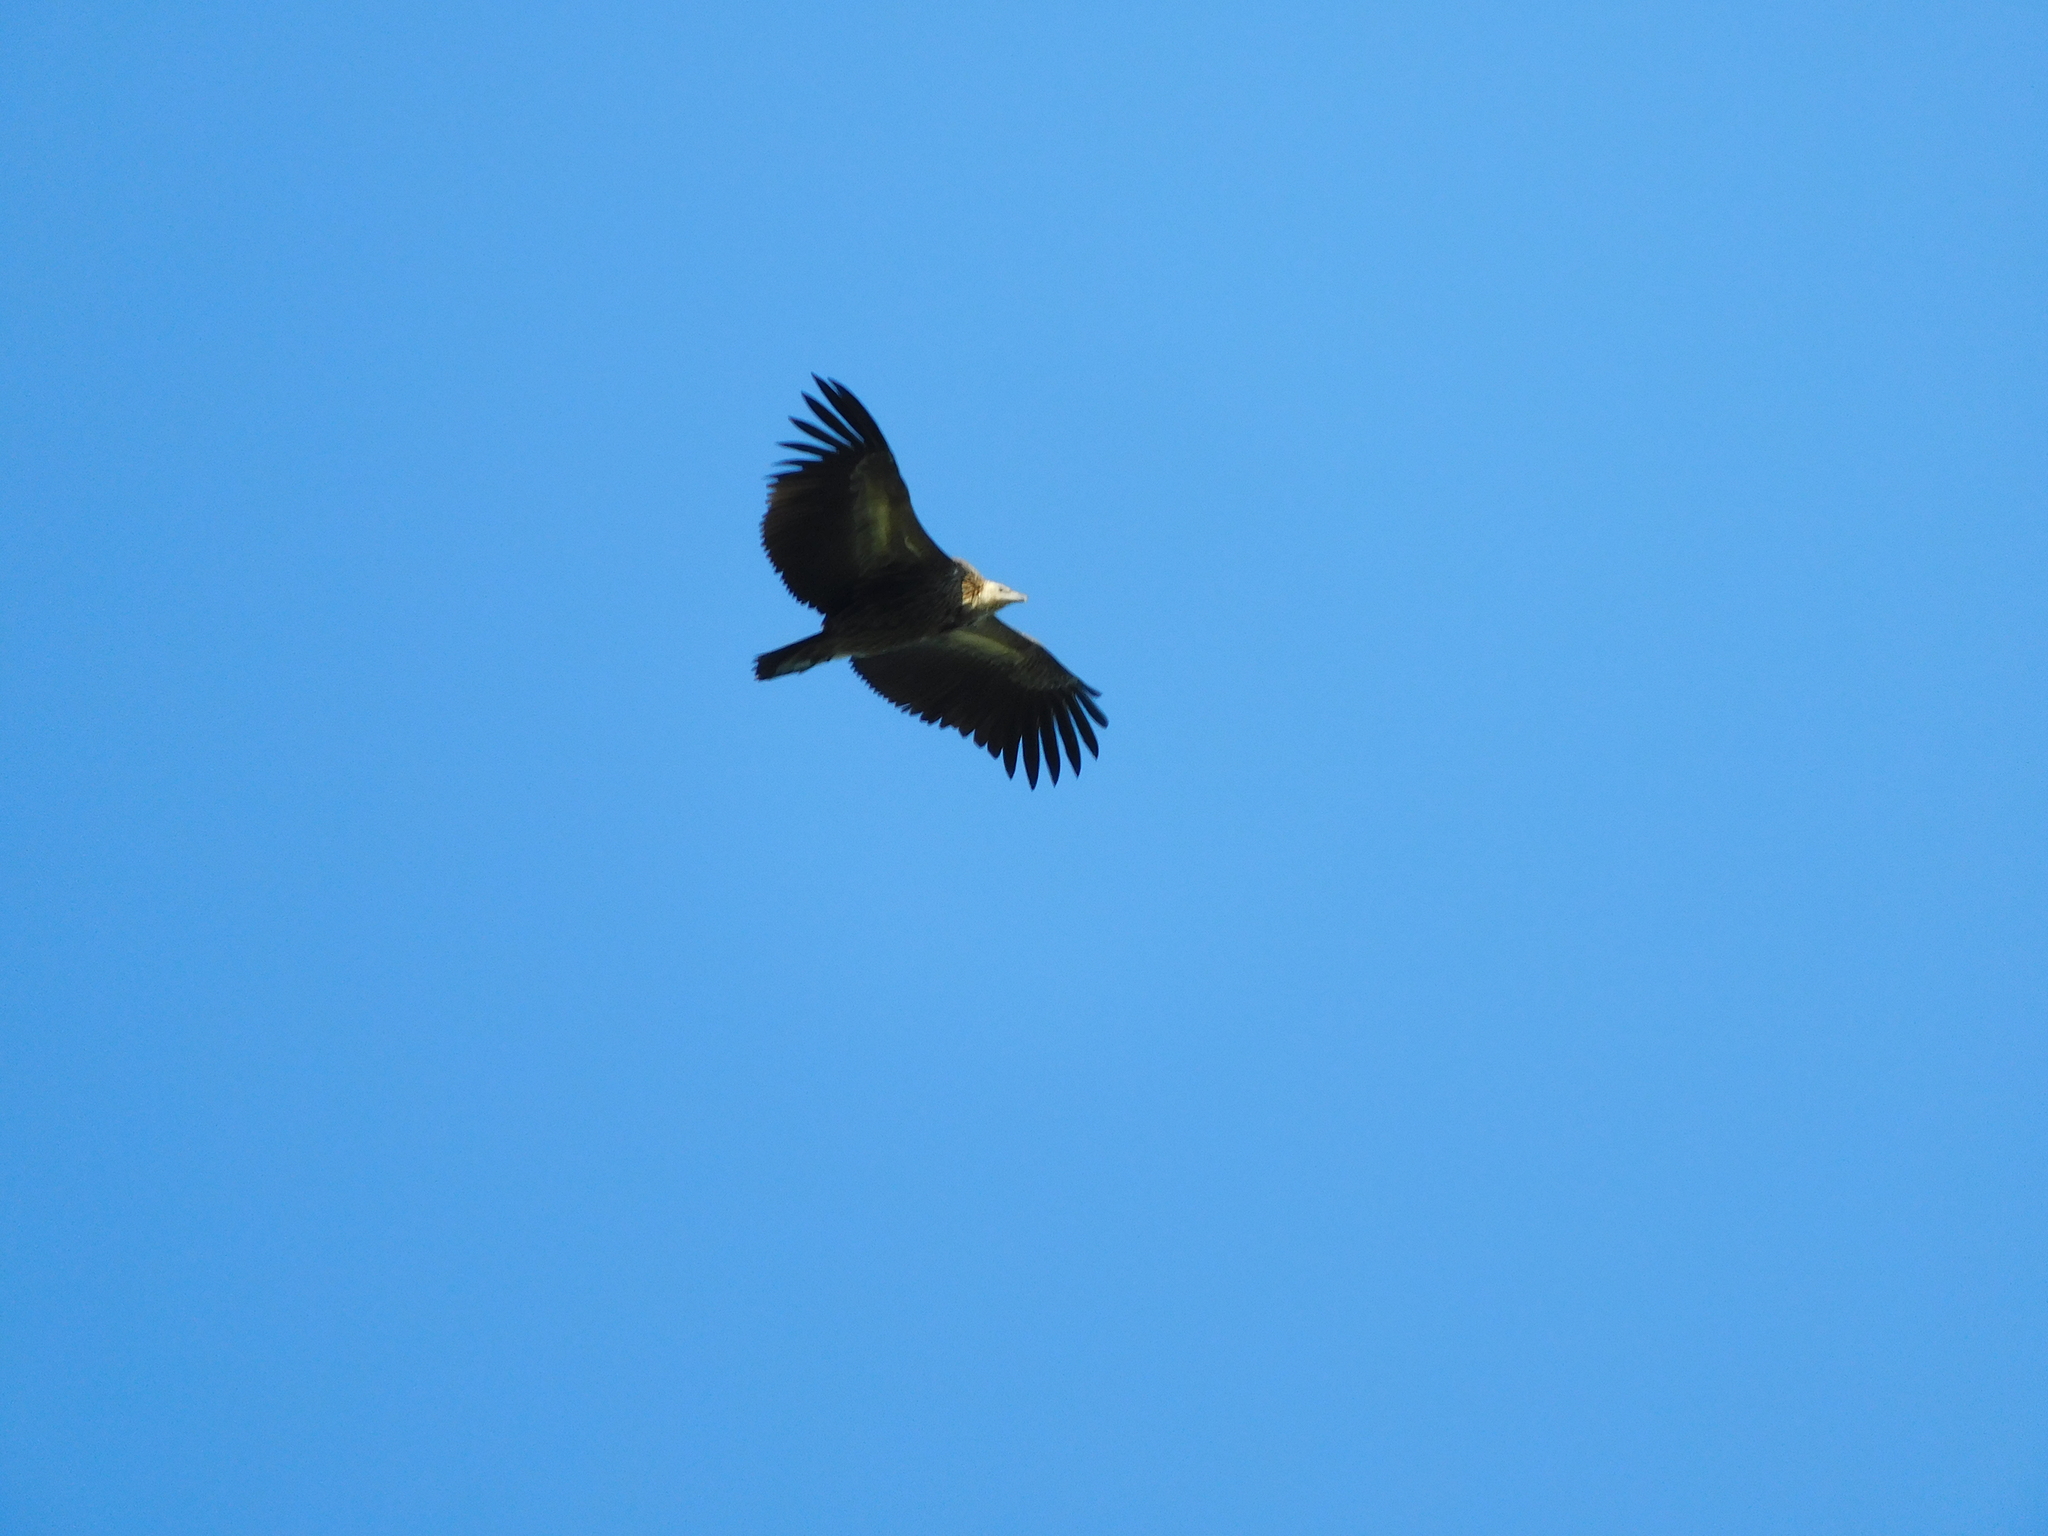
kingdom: Animalia
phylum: Chordata
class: Aves
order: Accipitriformes
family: Accipitridae
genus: Gyps
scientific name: Gyps fulvus
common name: Griffon vulture
